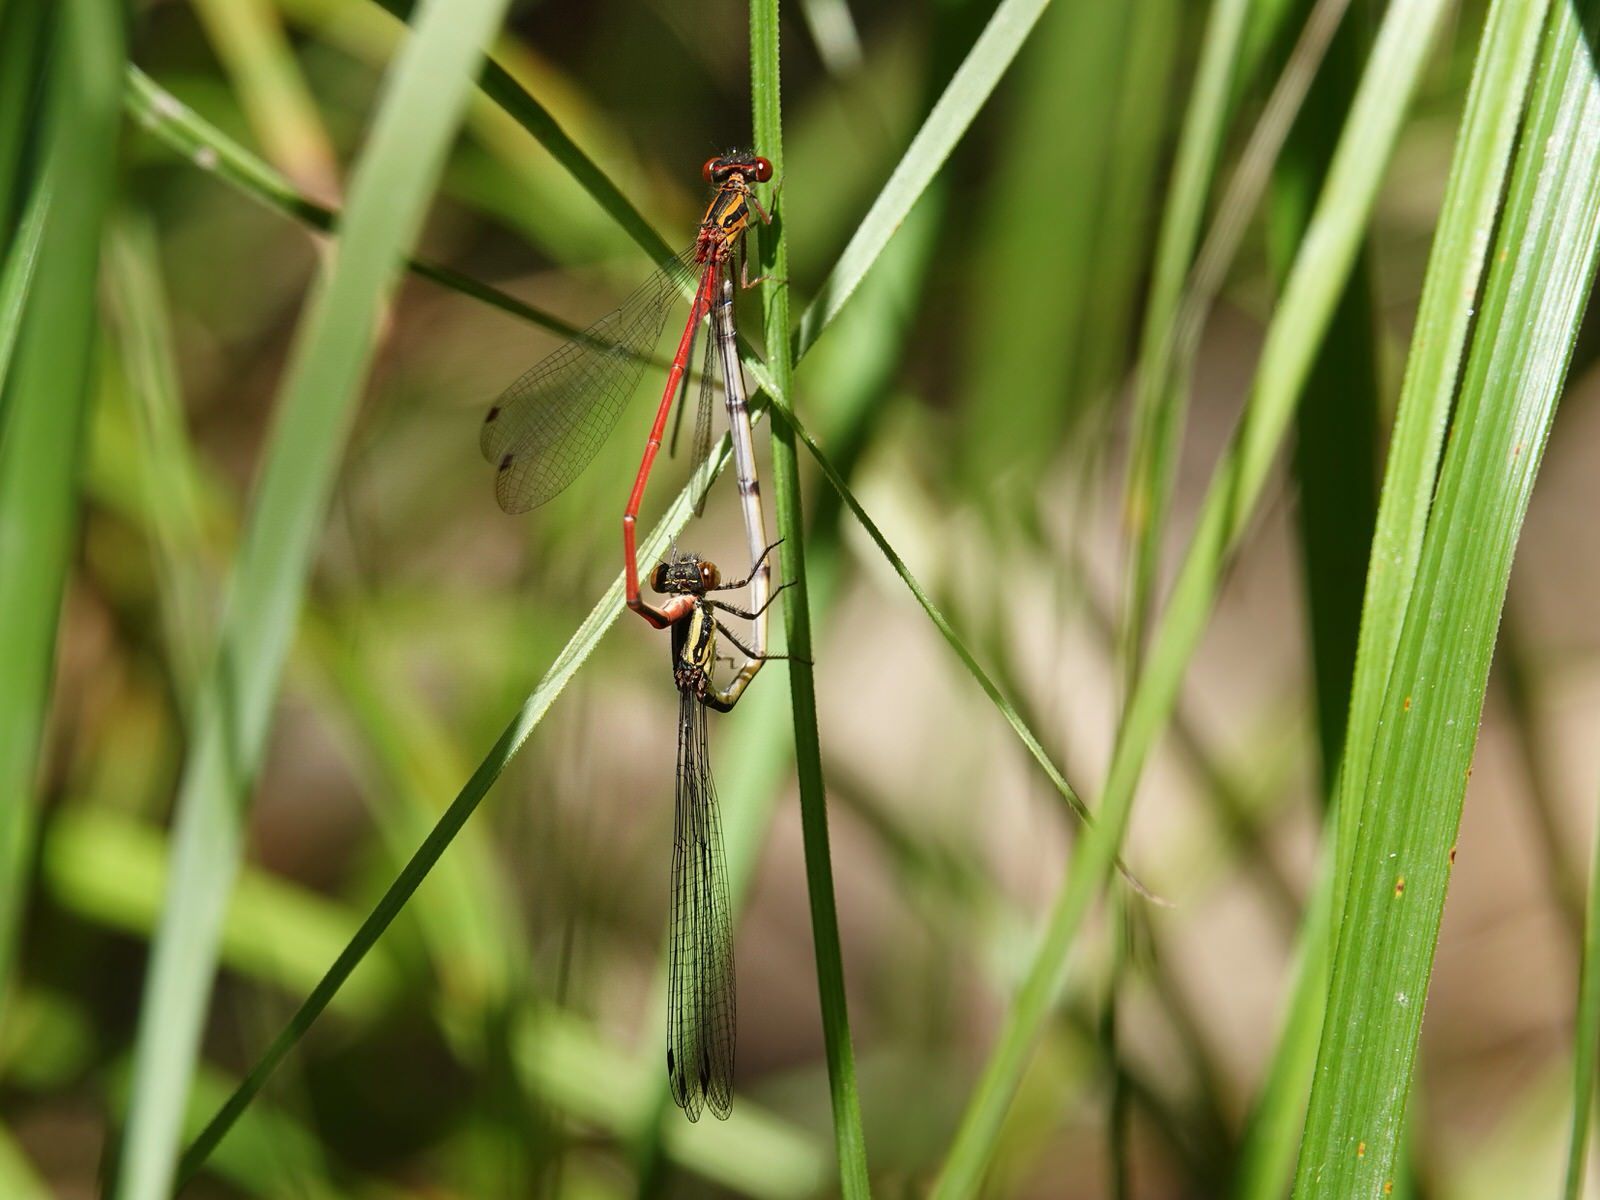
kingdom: Animalia
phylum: Arthropoda
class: Insecta
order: Odonata
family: Coenagrionidae
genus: Xanthocnemis
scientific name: Xanthocnemis zealandica
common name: Common redcoat damselfly
